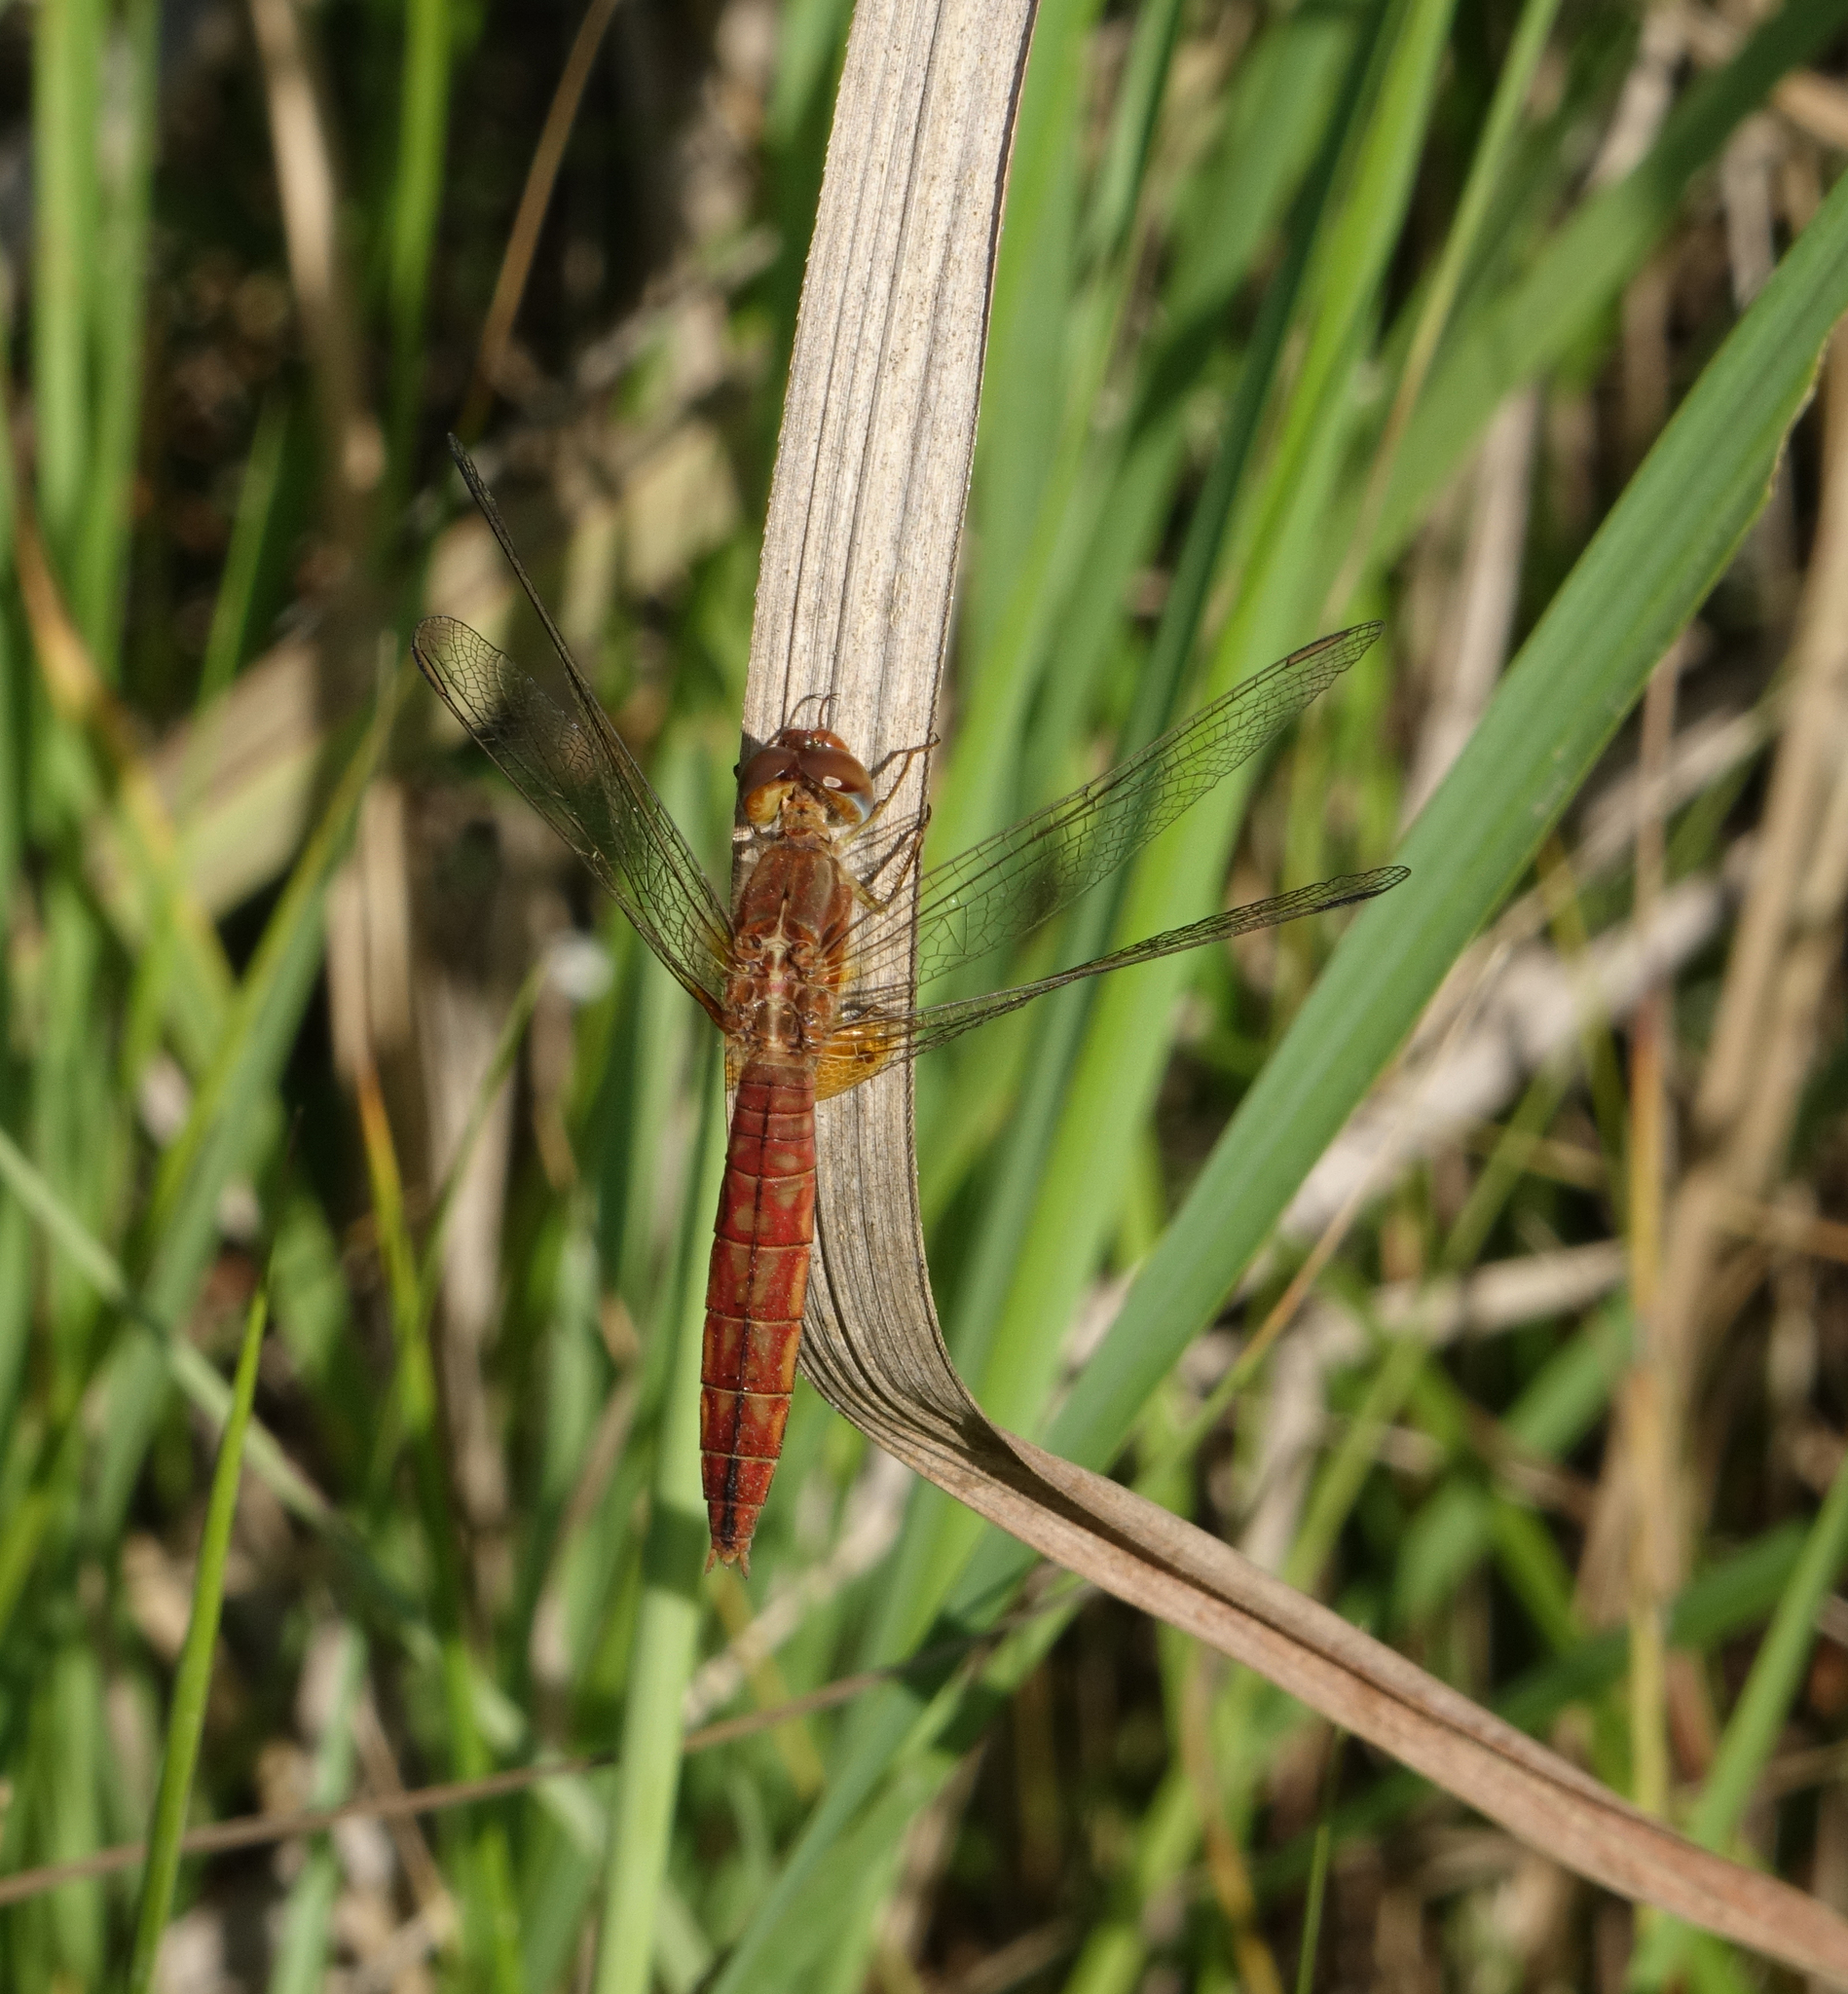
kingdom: Animalia
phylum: Arthropoda
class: Insecta
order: Odonata
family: Libellulidae
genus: Crocothemis
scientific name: Crocothemis erythraea
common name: Scarlet dragonfly
